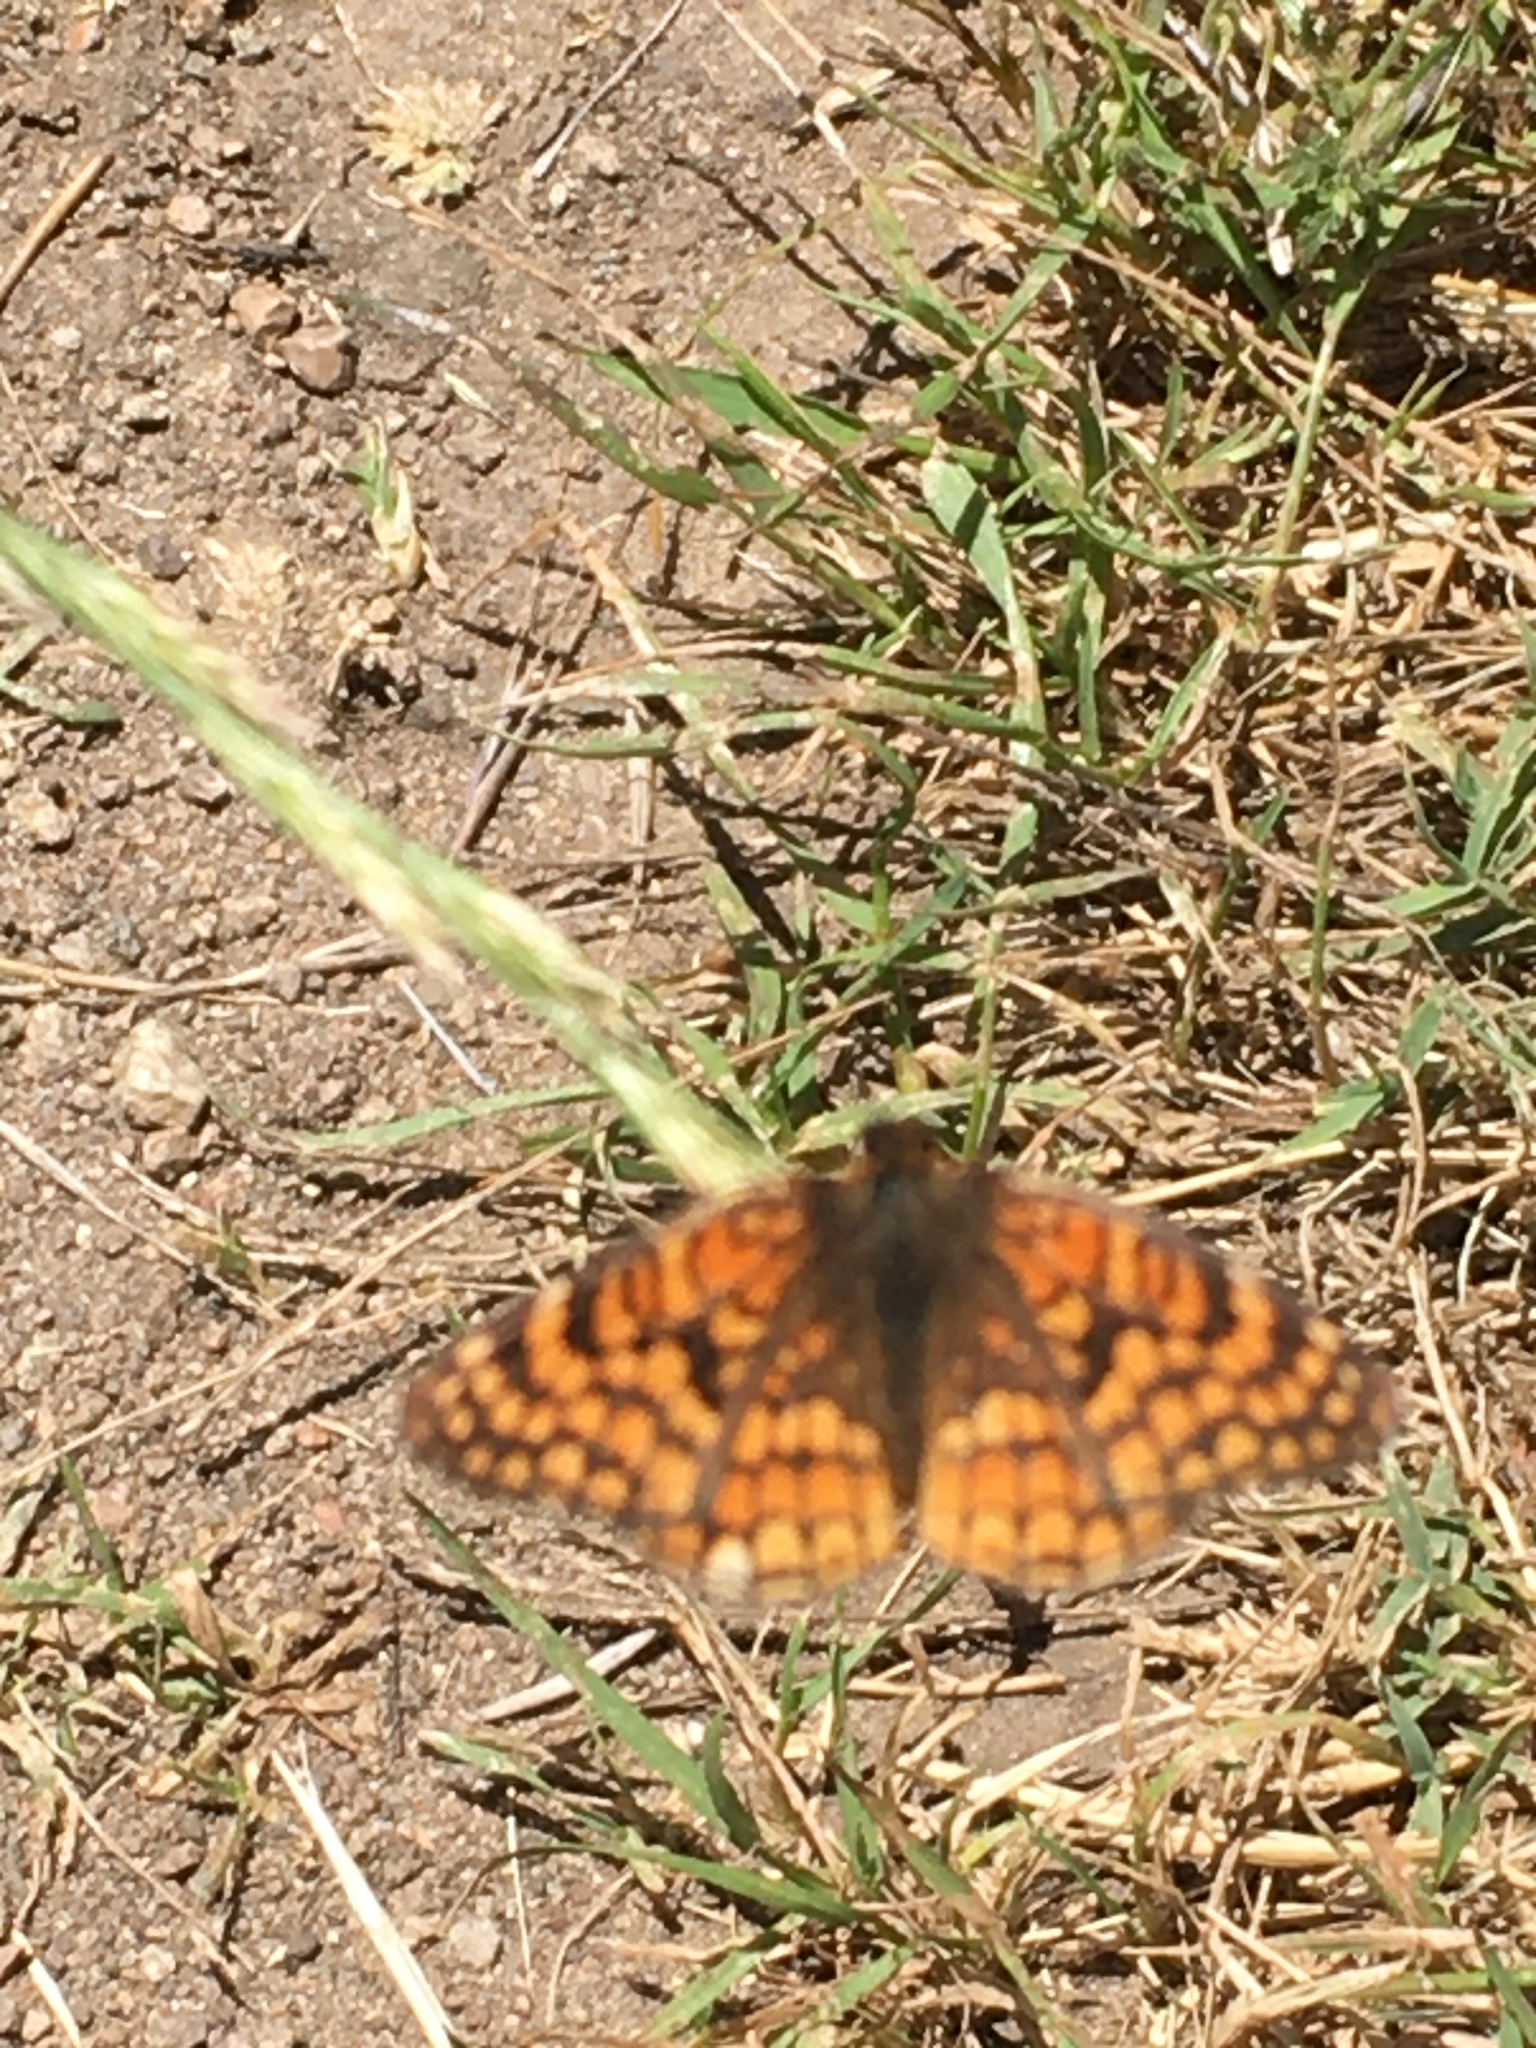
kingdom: Animalia
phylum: Arthropoda
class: Insecta
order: Lepidoptera
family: Nymphalidae
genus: Chlosyne
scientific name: Chlosyne gabbii
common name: Gabb's checkerspot
